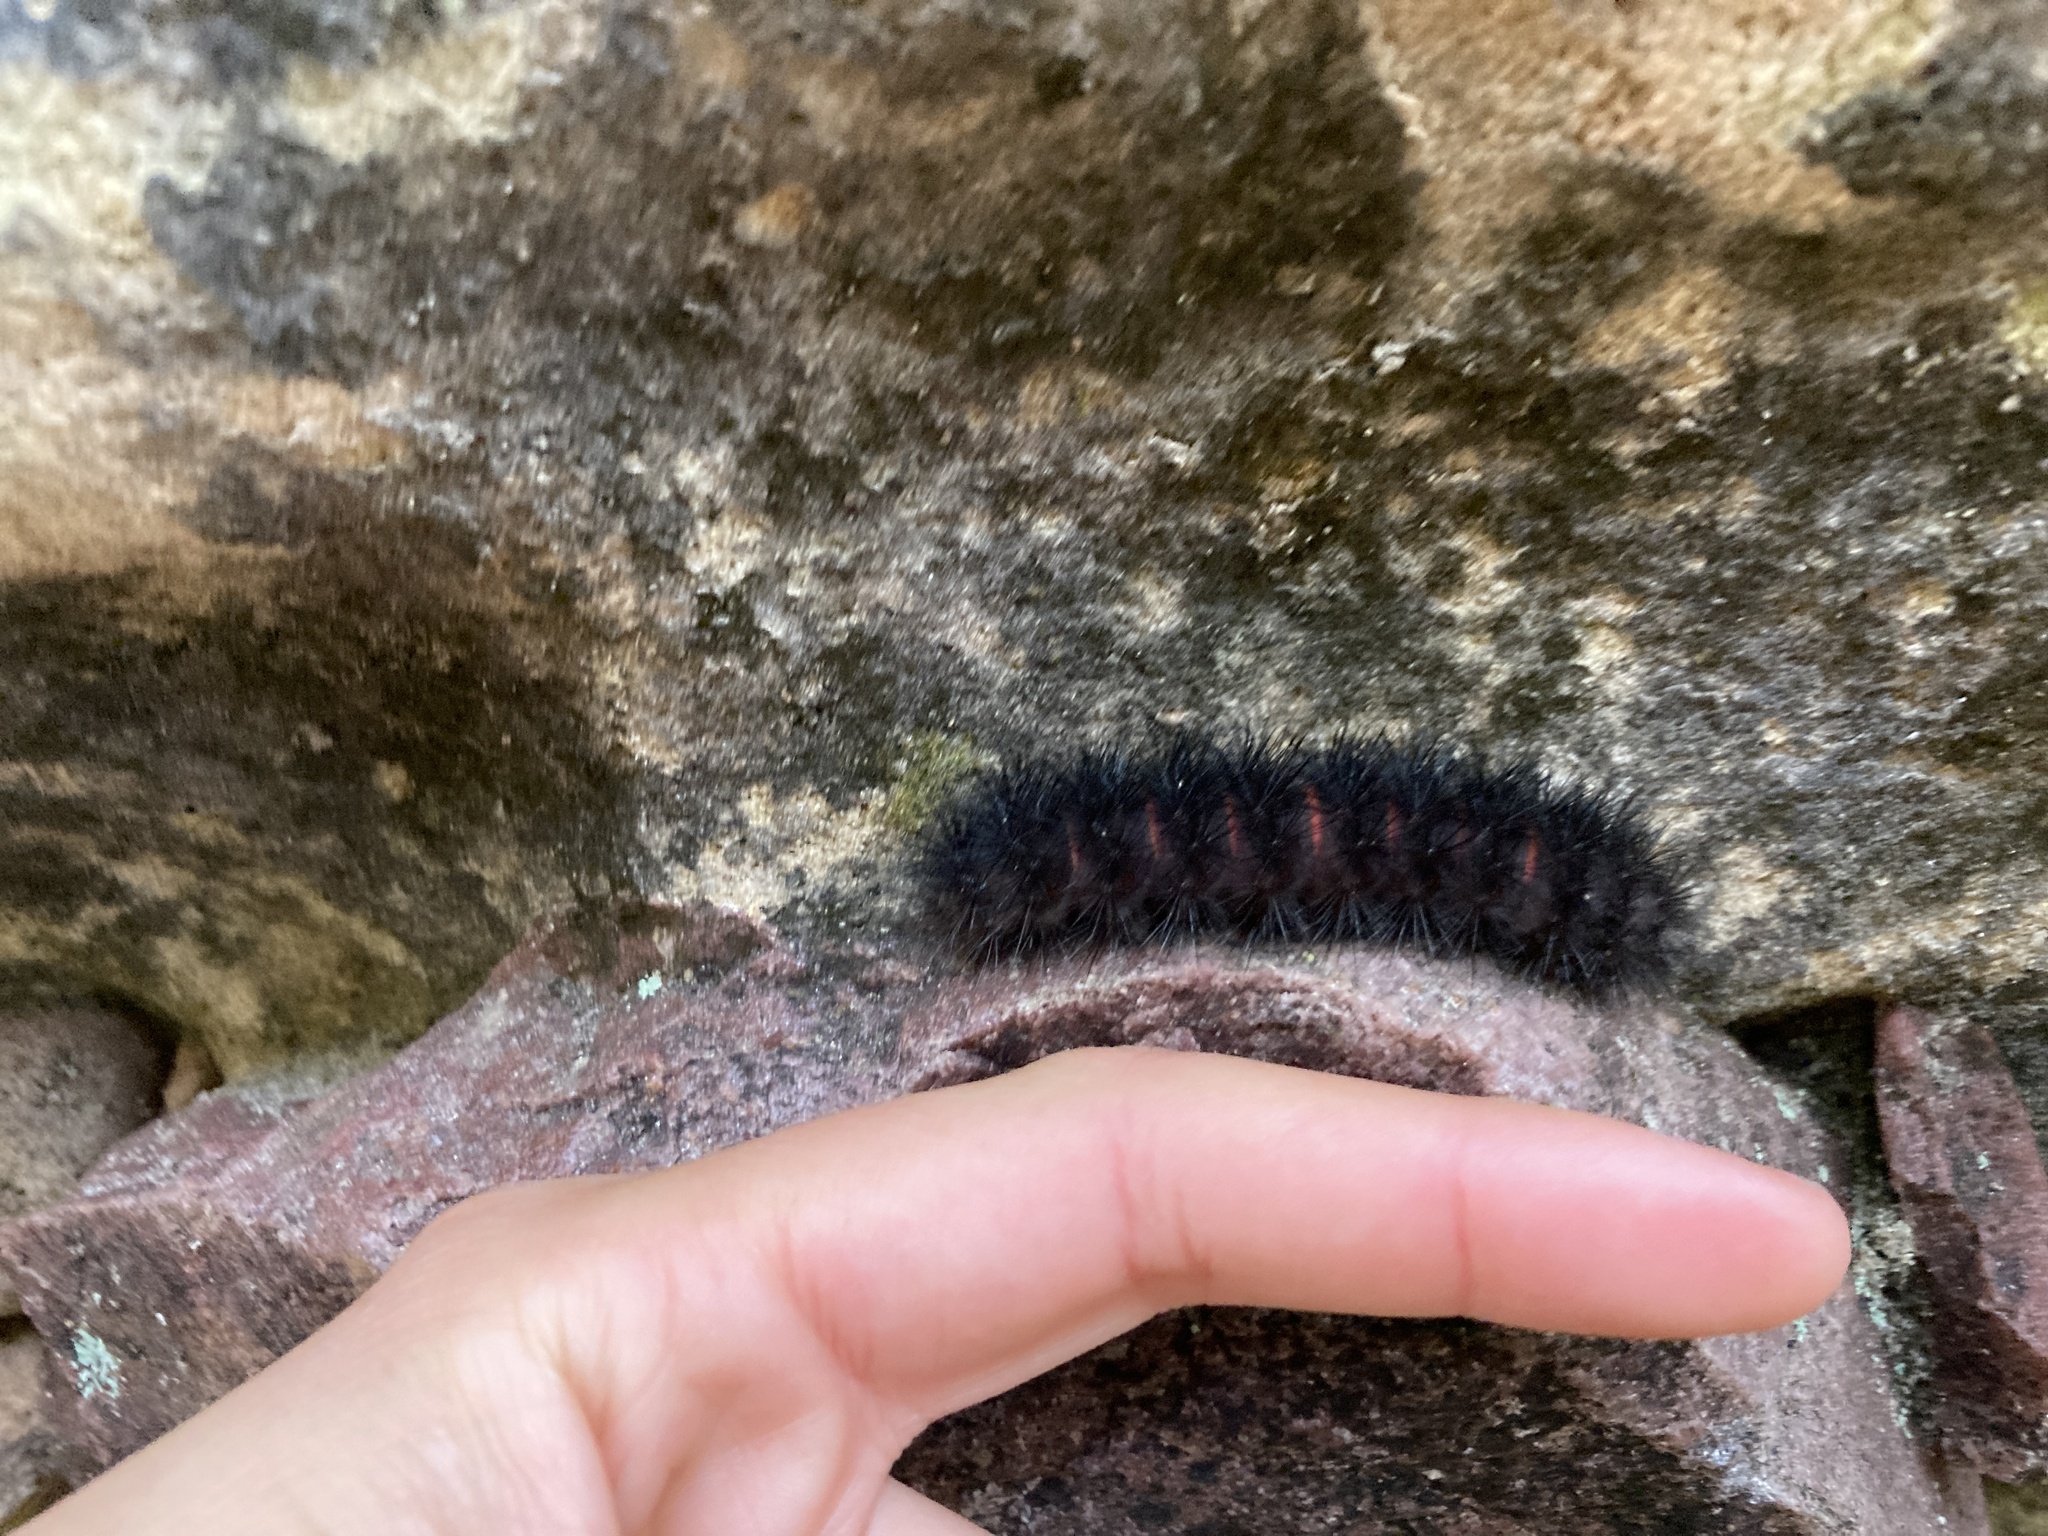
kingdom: Animalia
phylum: Arthropoda
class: Insecta
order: Lepidoptera
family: Erebidae
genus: Hypercompe
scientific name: Hypercompe scribonia
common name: Giant leopard moth
